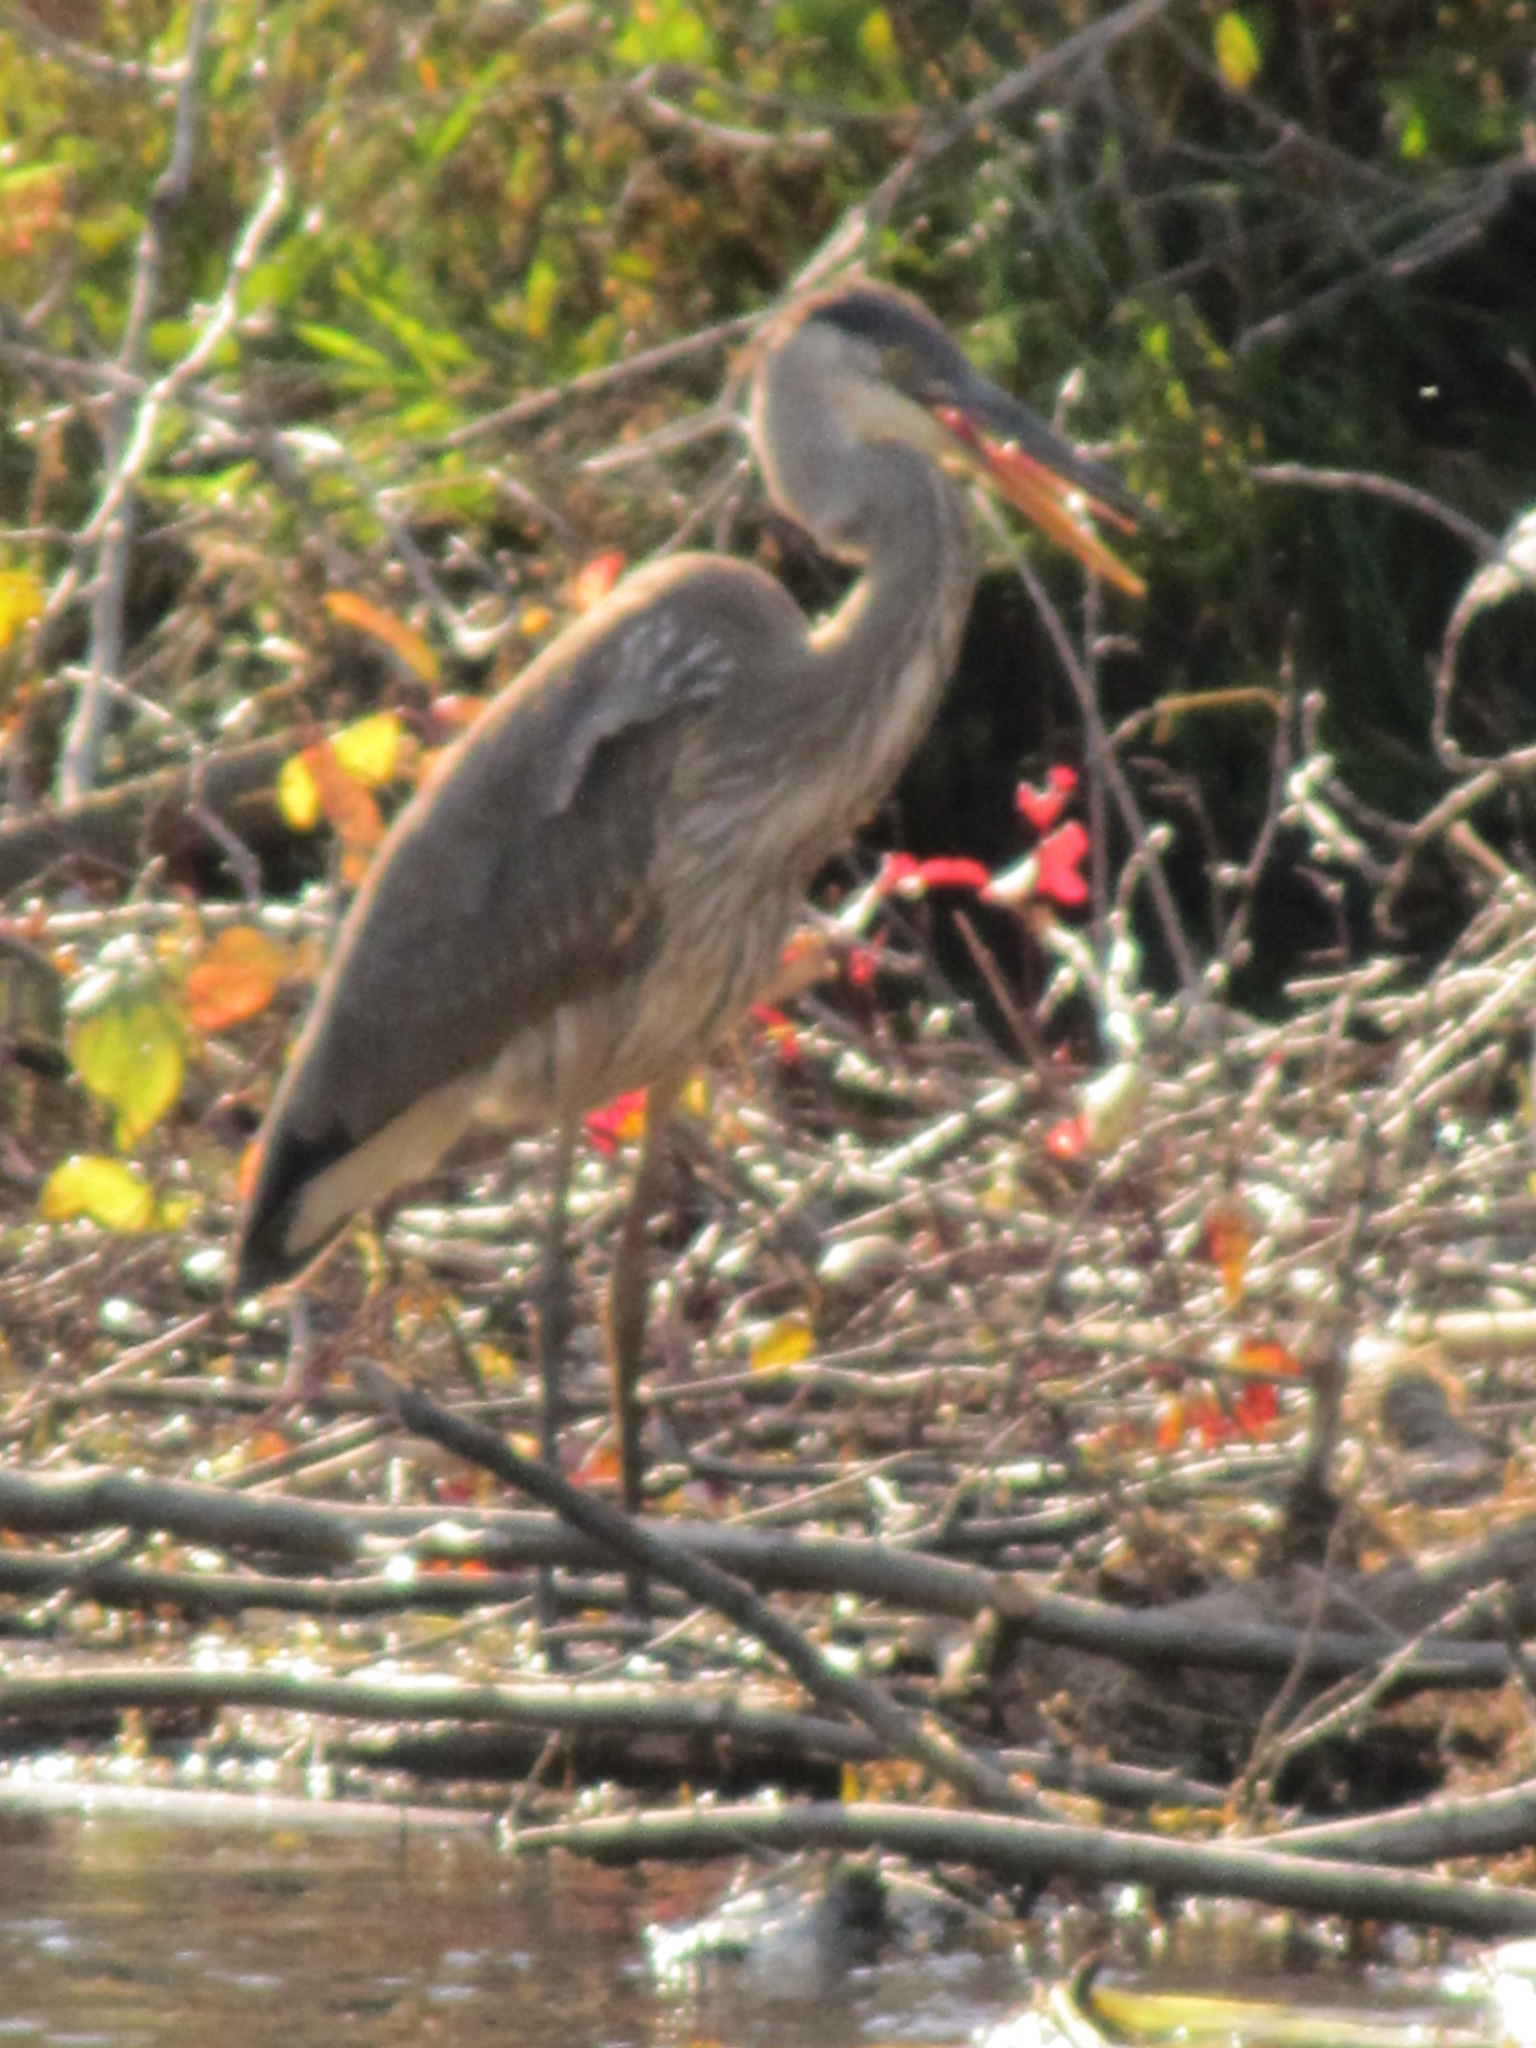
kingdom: Animalia
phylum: Chordata
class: Aves
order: Pelecaniformes
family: Ardeidae
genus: Ardea
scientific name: Ardea herodias
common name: Great blue heron
